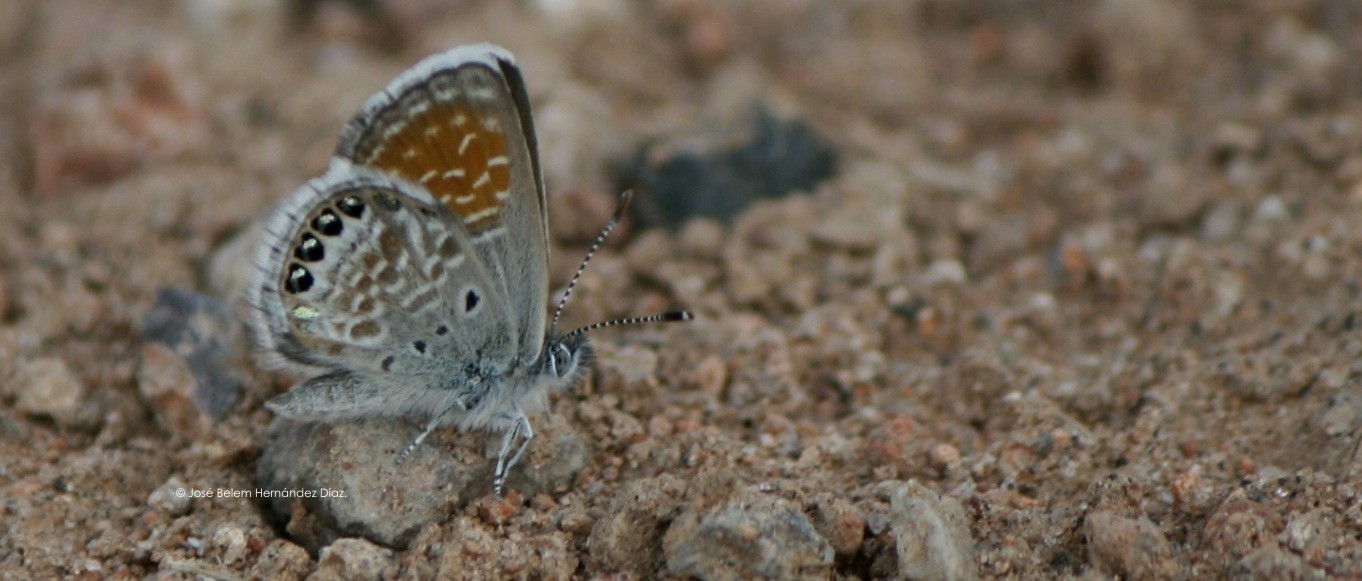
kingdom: Animalia
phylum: Arthropoda
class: Insecta
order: Lepidoptera
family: Lycaenidae
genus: Brephidium
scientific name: Brephidium exilis
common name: Pygmy blue
